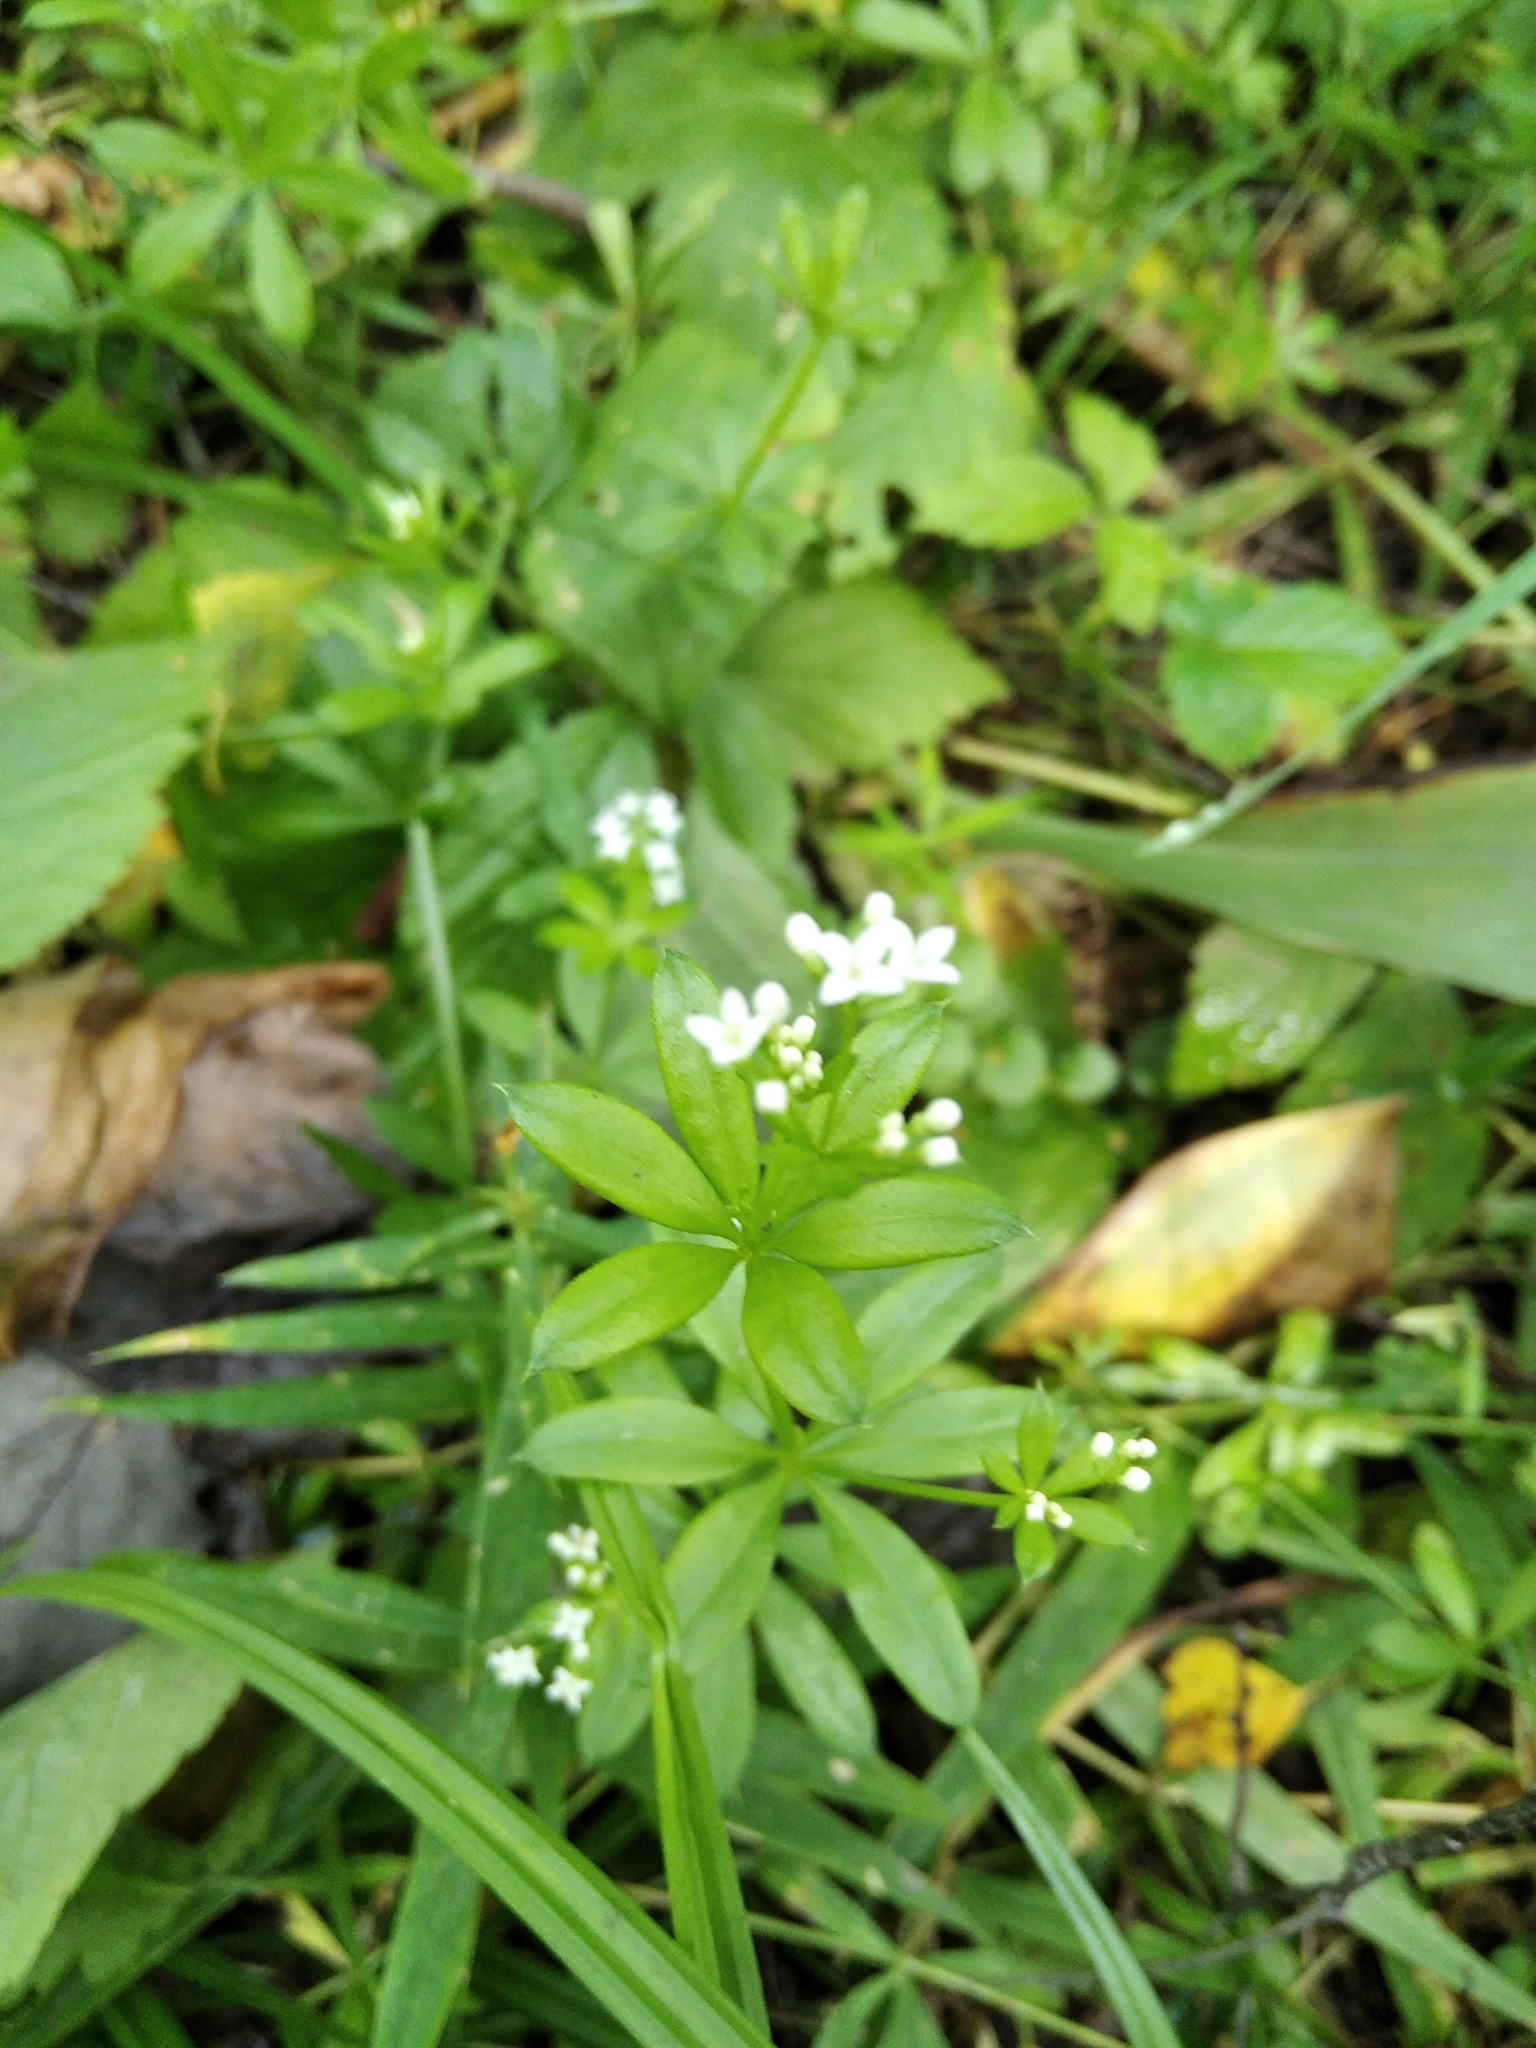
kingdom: Plantae
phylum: Tracheophyta
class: Magnoliopsida
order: Gentianales
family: Rubiaceae
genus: Galium
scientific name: Galium rivale
